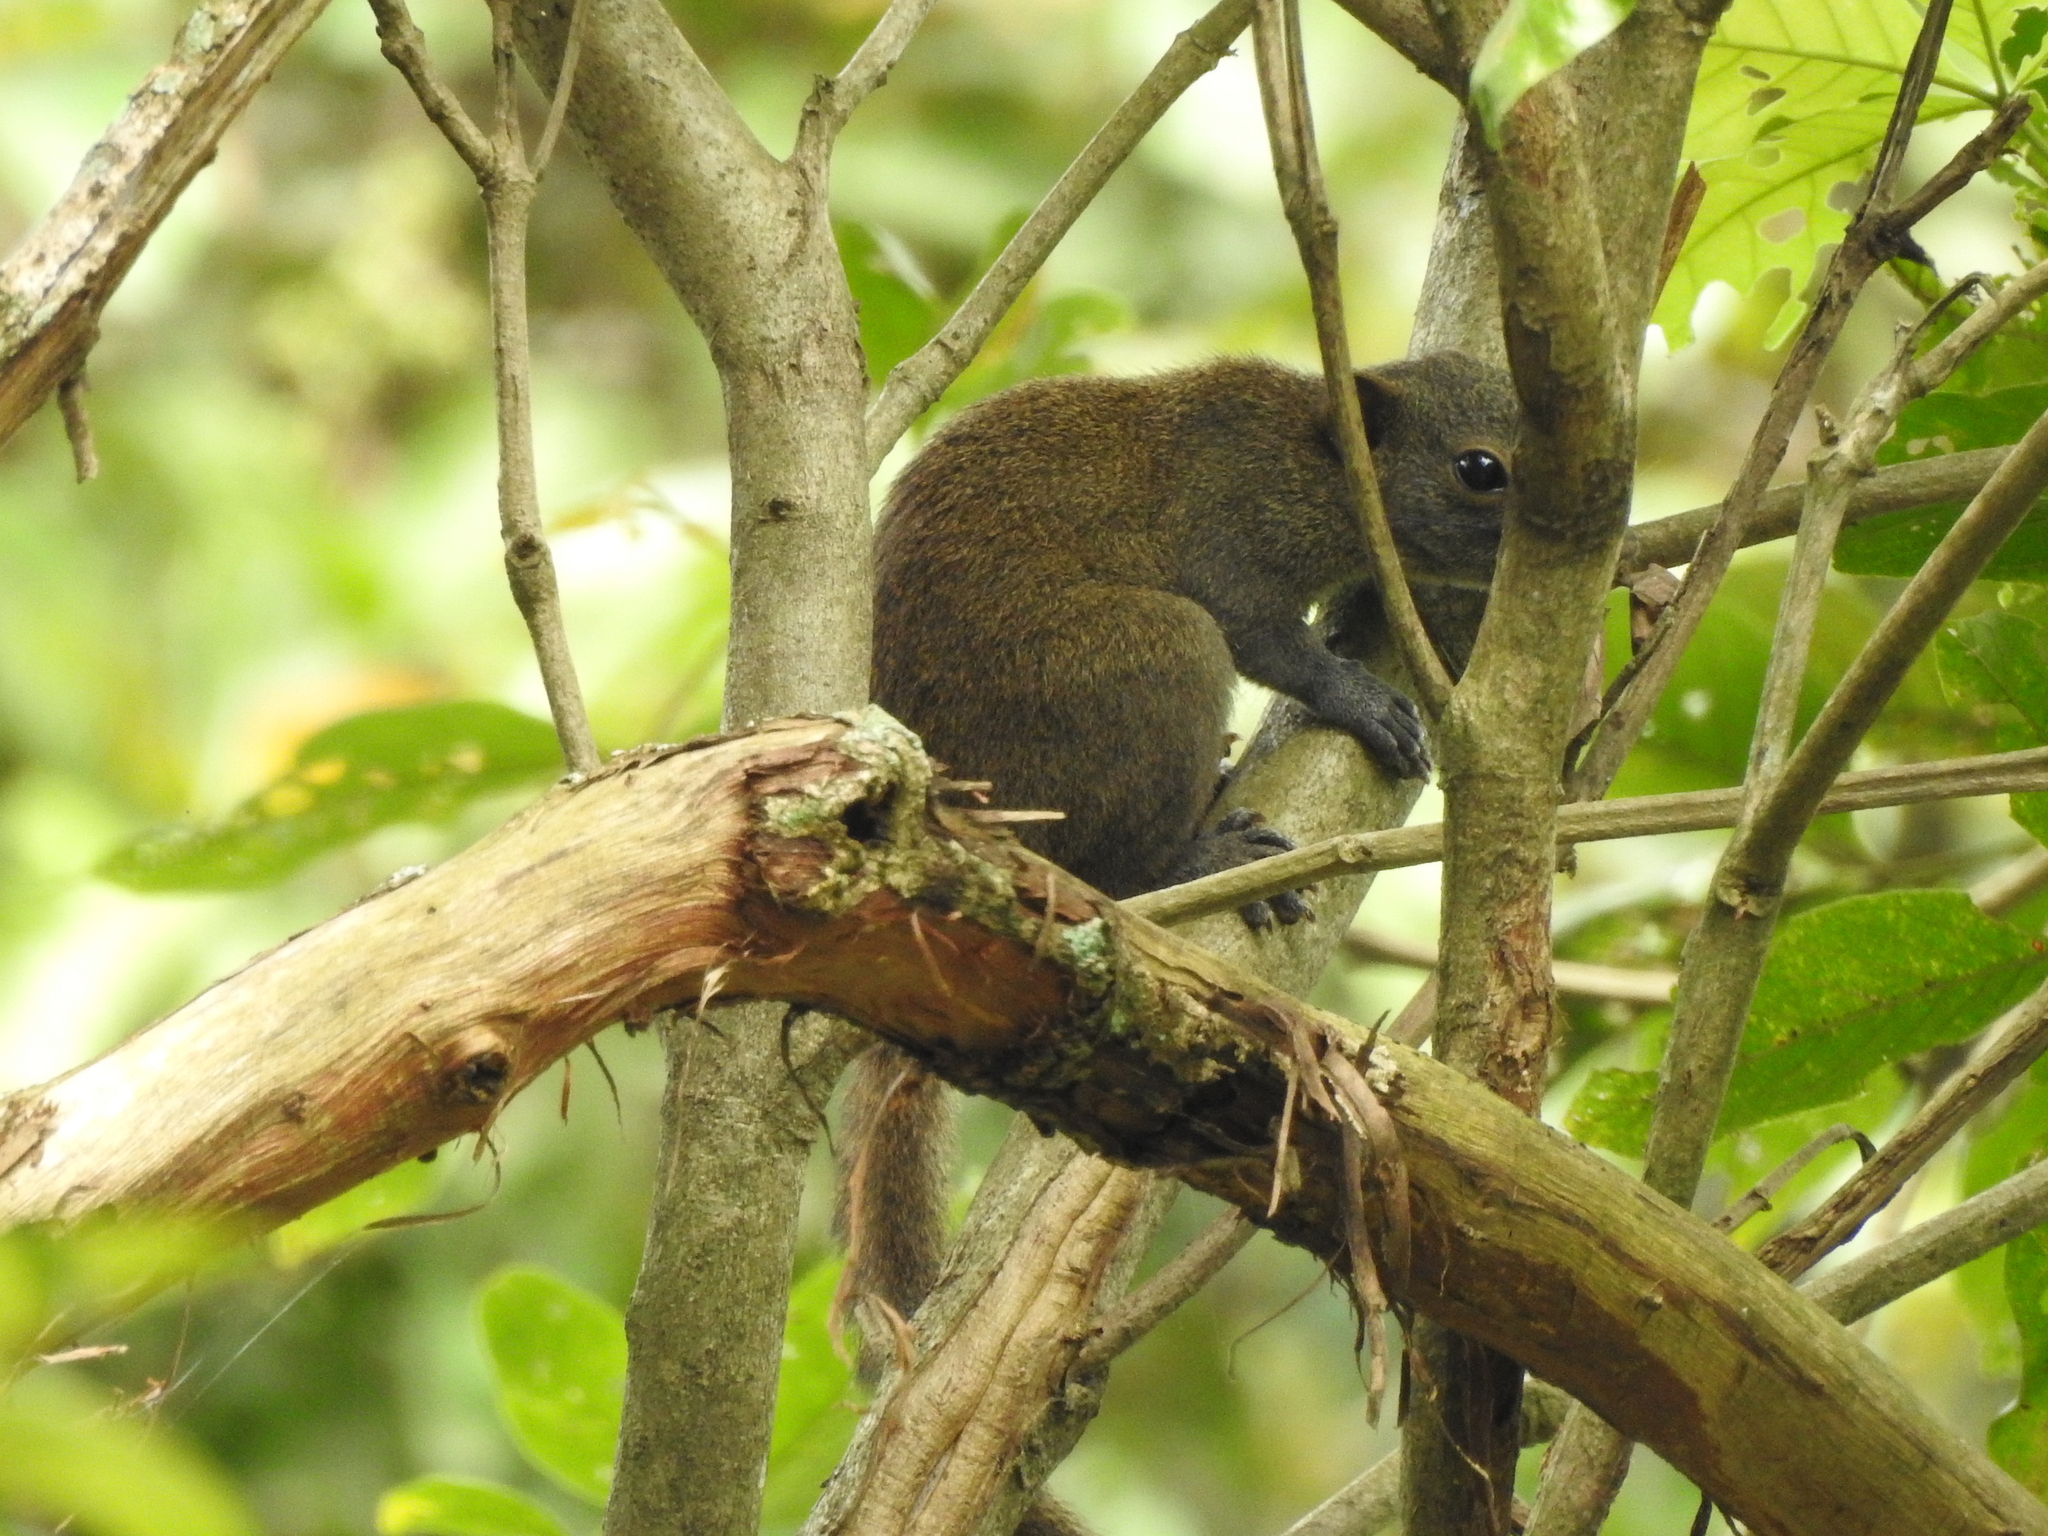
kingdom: Animalia
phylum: Chordata
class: Mammalia
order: Rodentia
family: Sciuridae
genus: Callosciurus
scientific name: Callosciurus caniceps
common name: Gray-bellied squirrel
